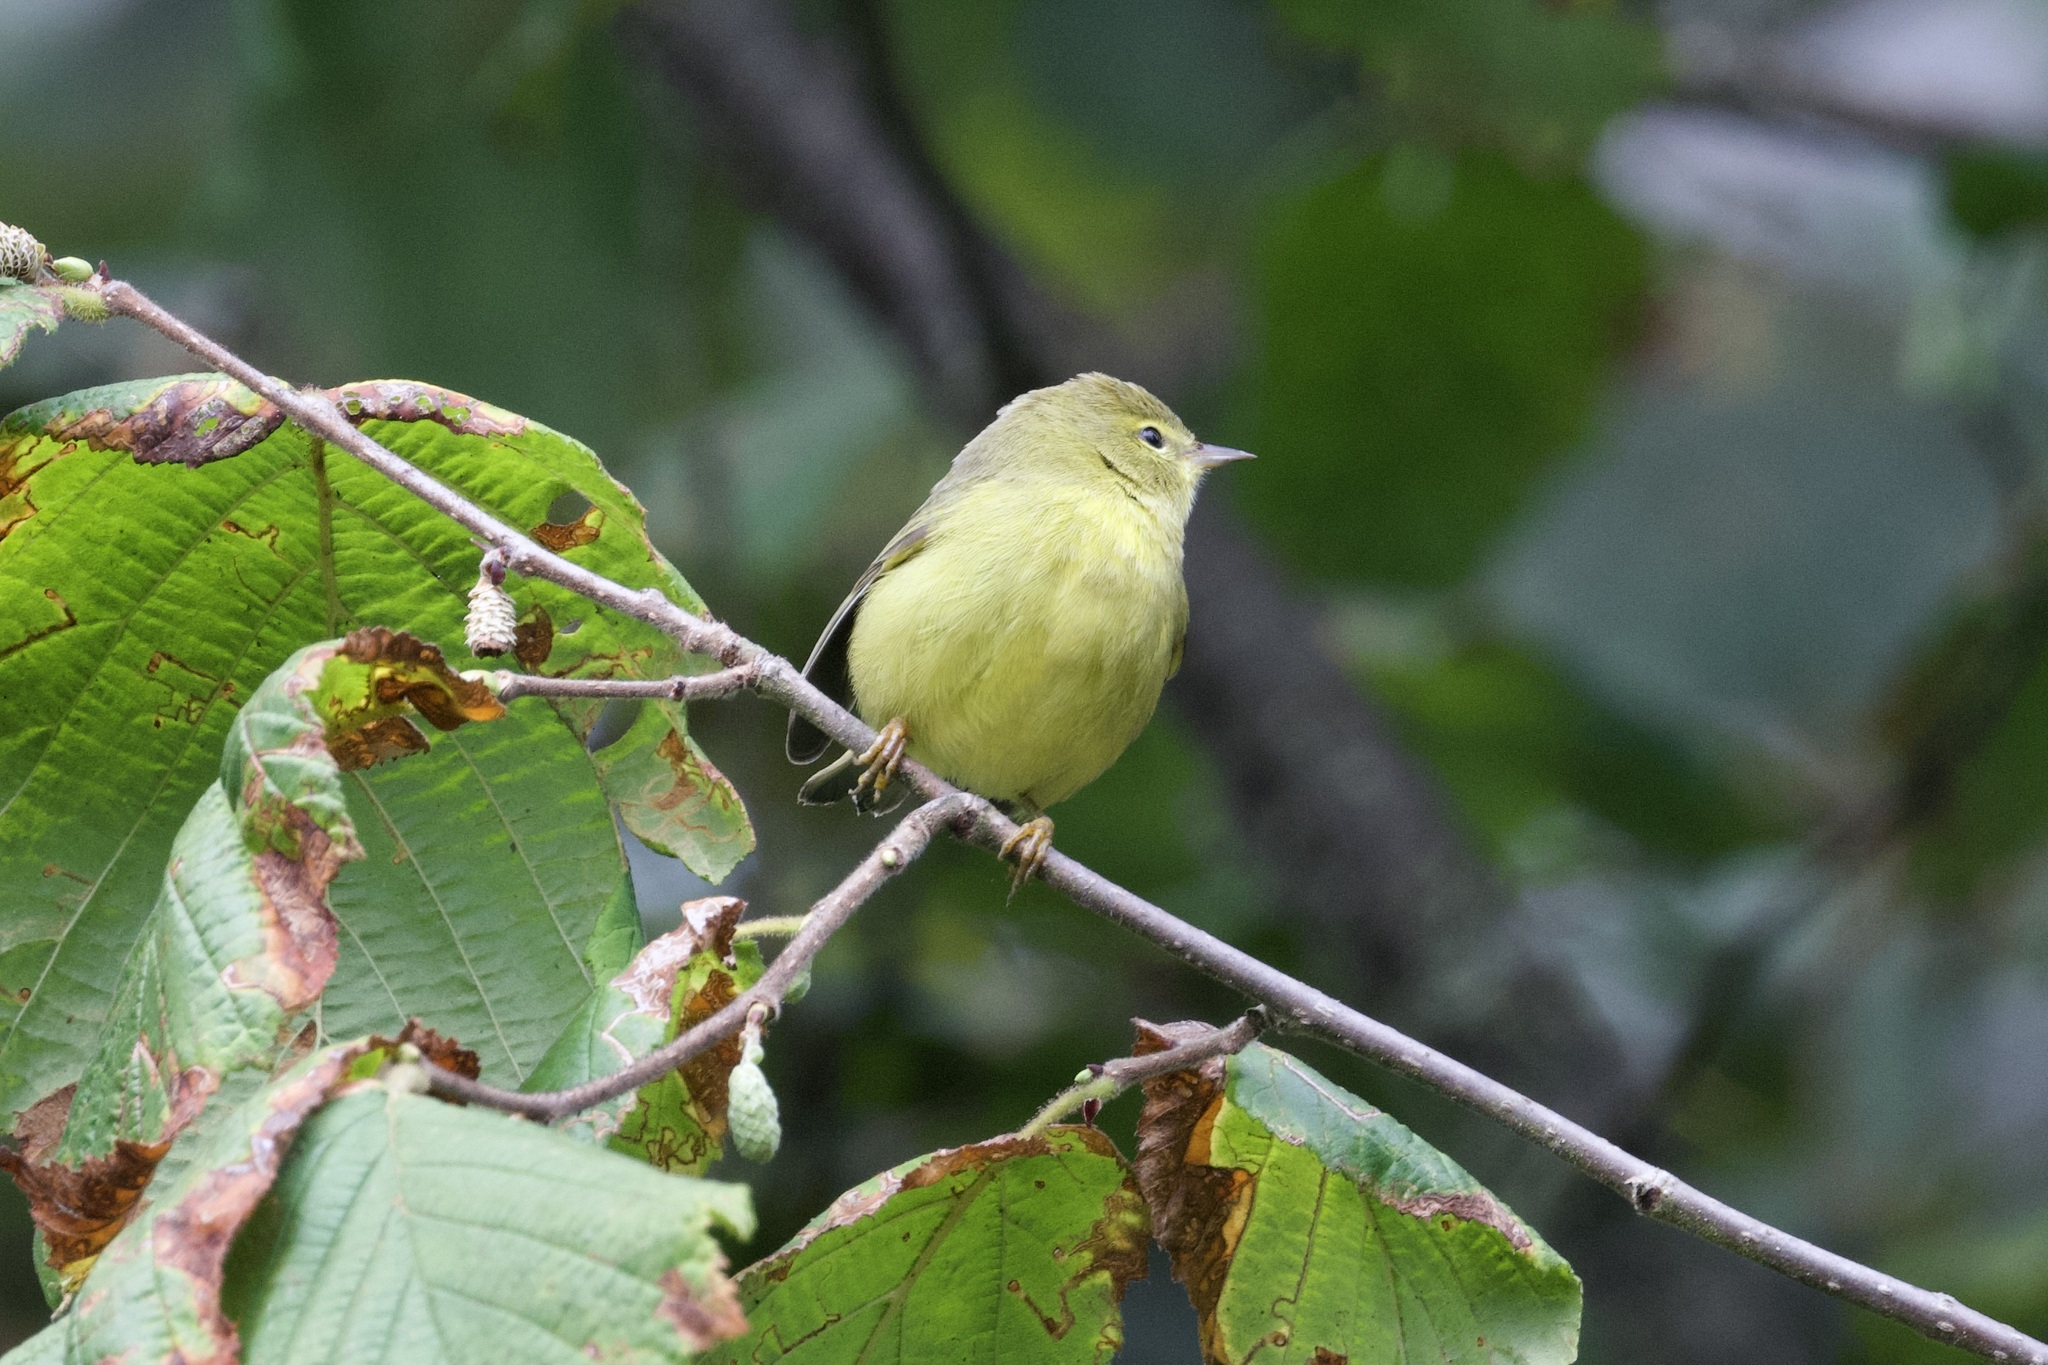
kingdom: Animalia
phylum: Chordata
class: Aves
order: Passeriformes
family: Parulidae
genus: Leiothlypis
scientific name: Leiothlypis celata
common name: Orange-crowned warbler
